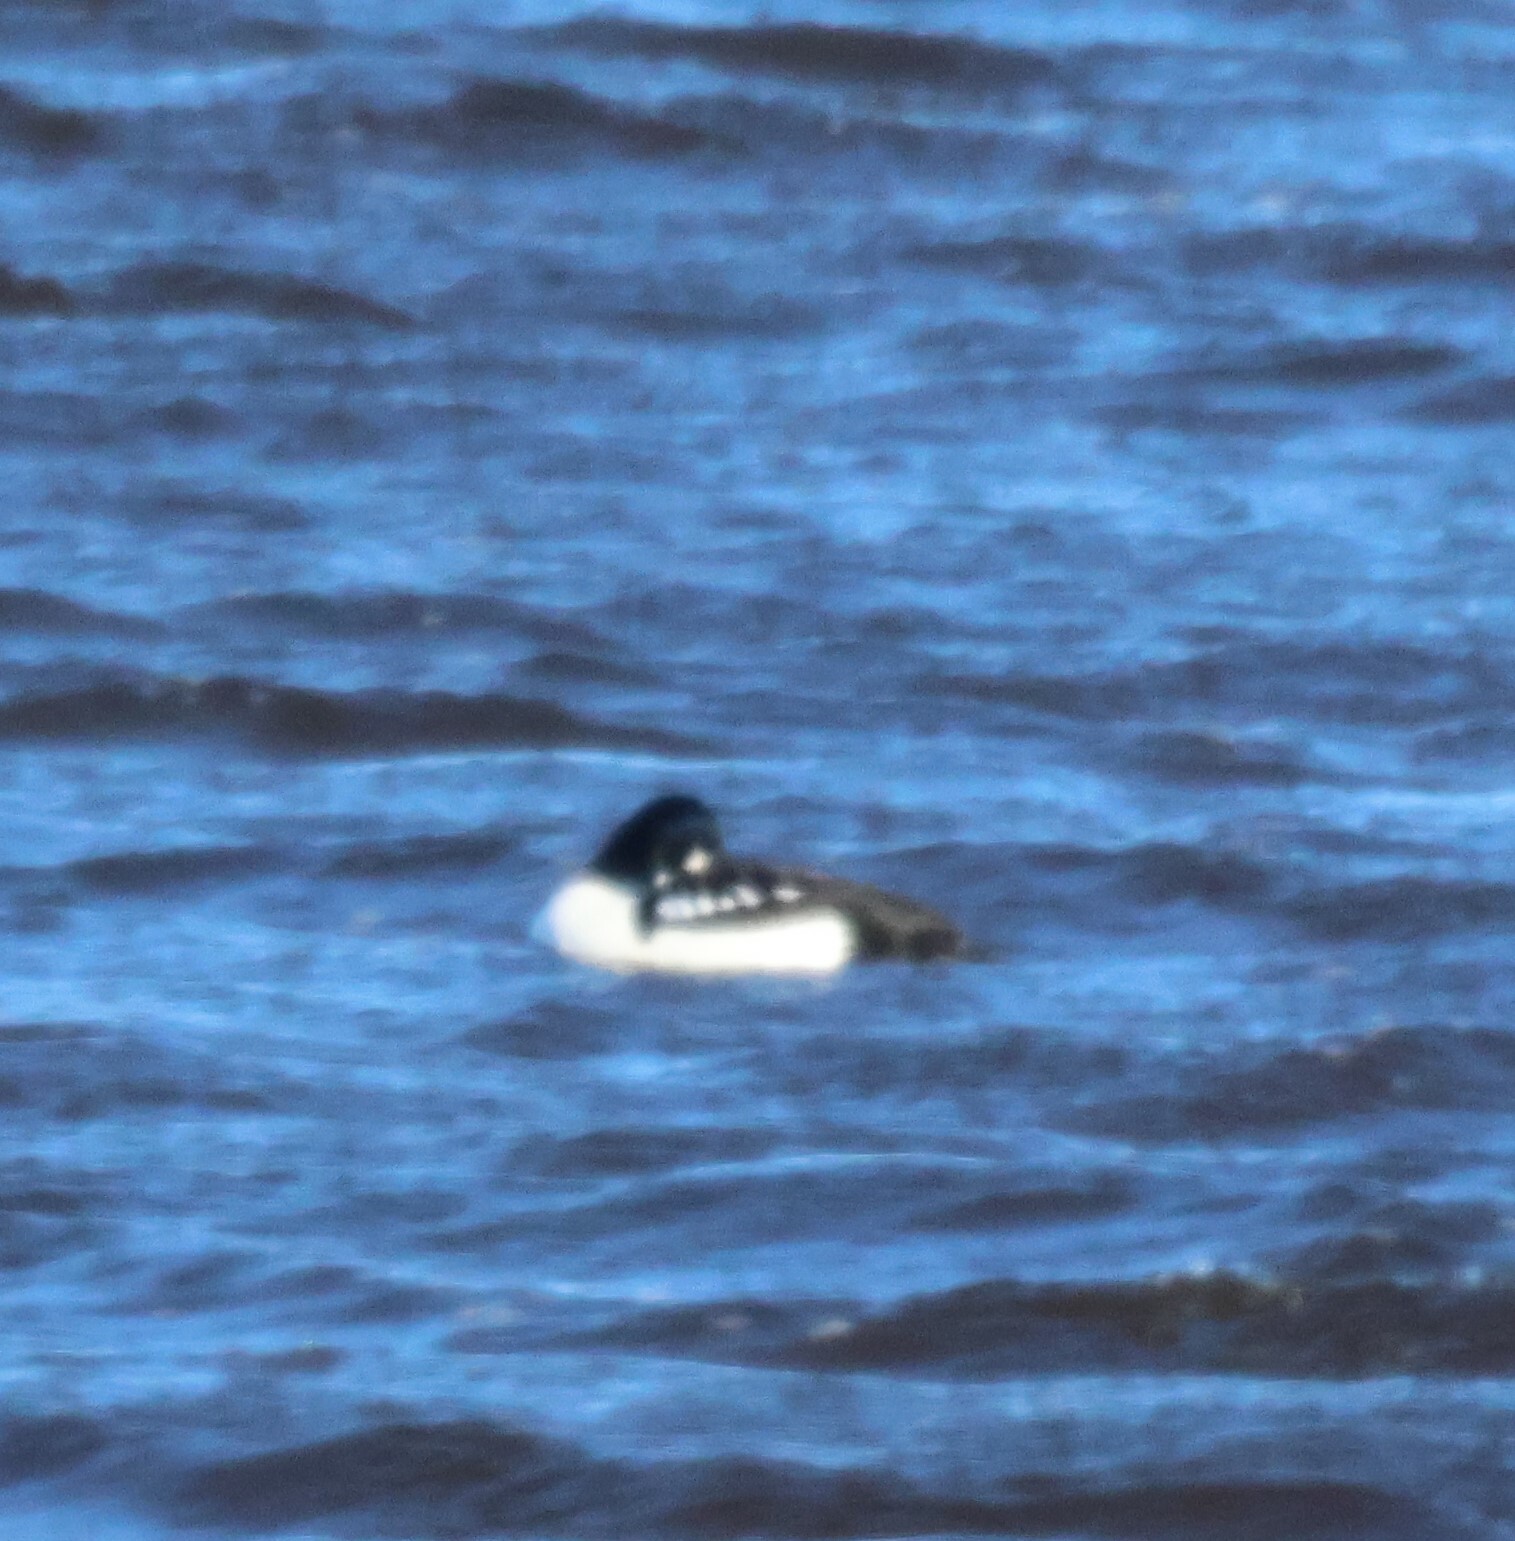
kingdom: Animalia
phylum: Chordata
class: Aves
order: Anseriformes
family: Anatidae
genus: Bucephala
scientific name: Bucephala islandica
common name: Barrow's goldeneye
